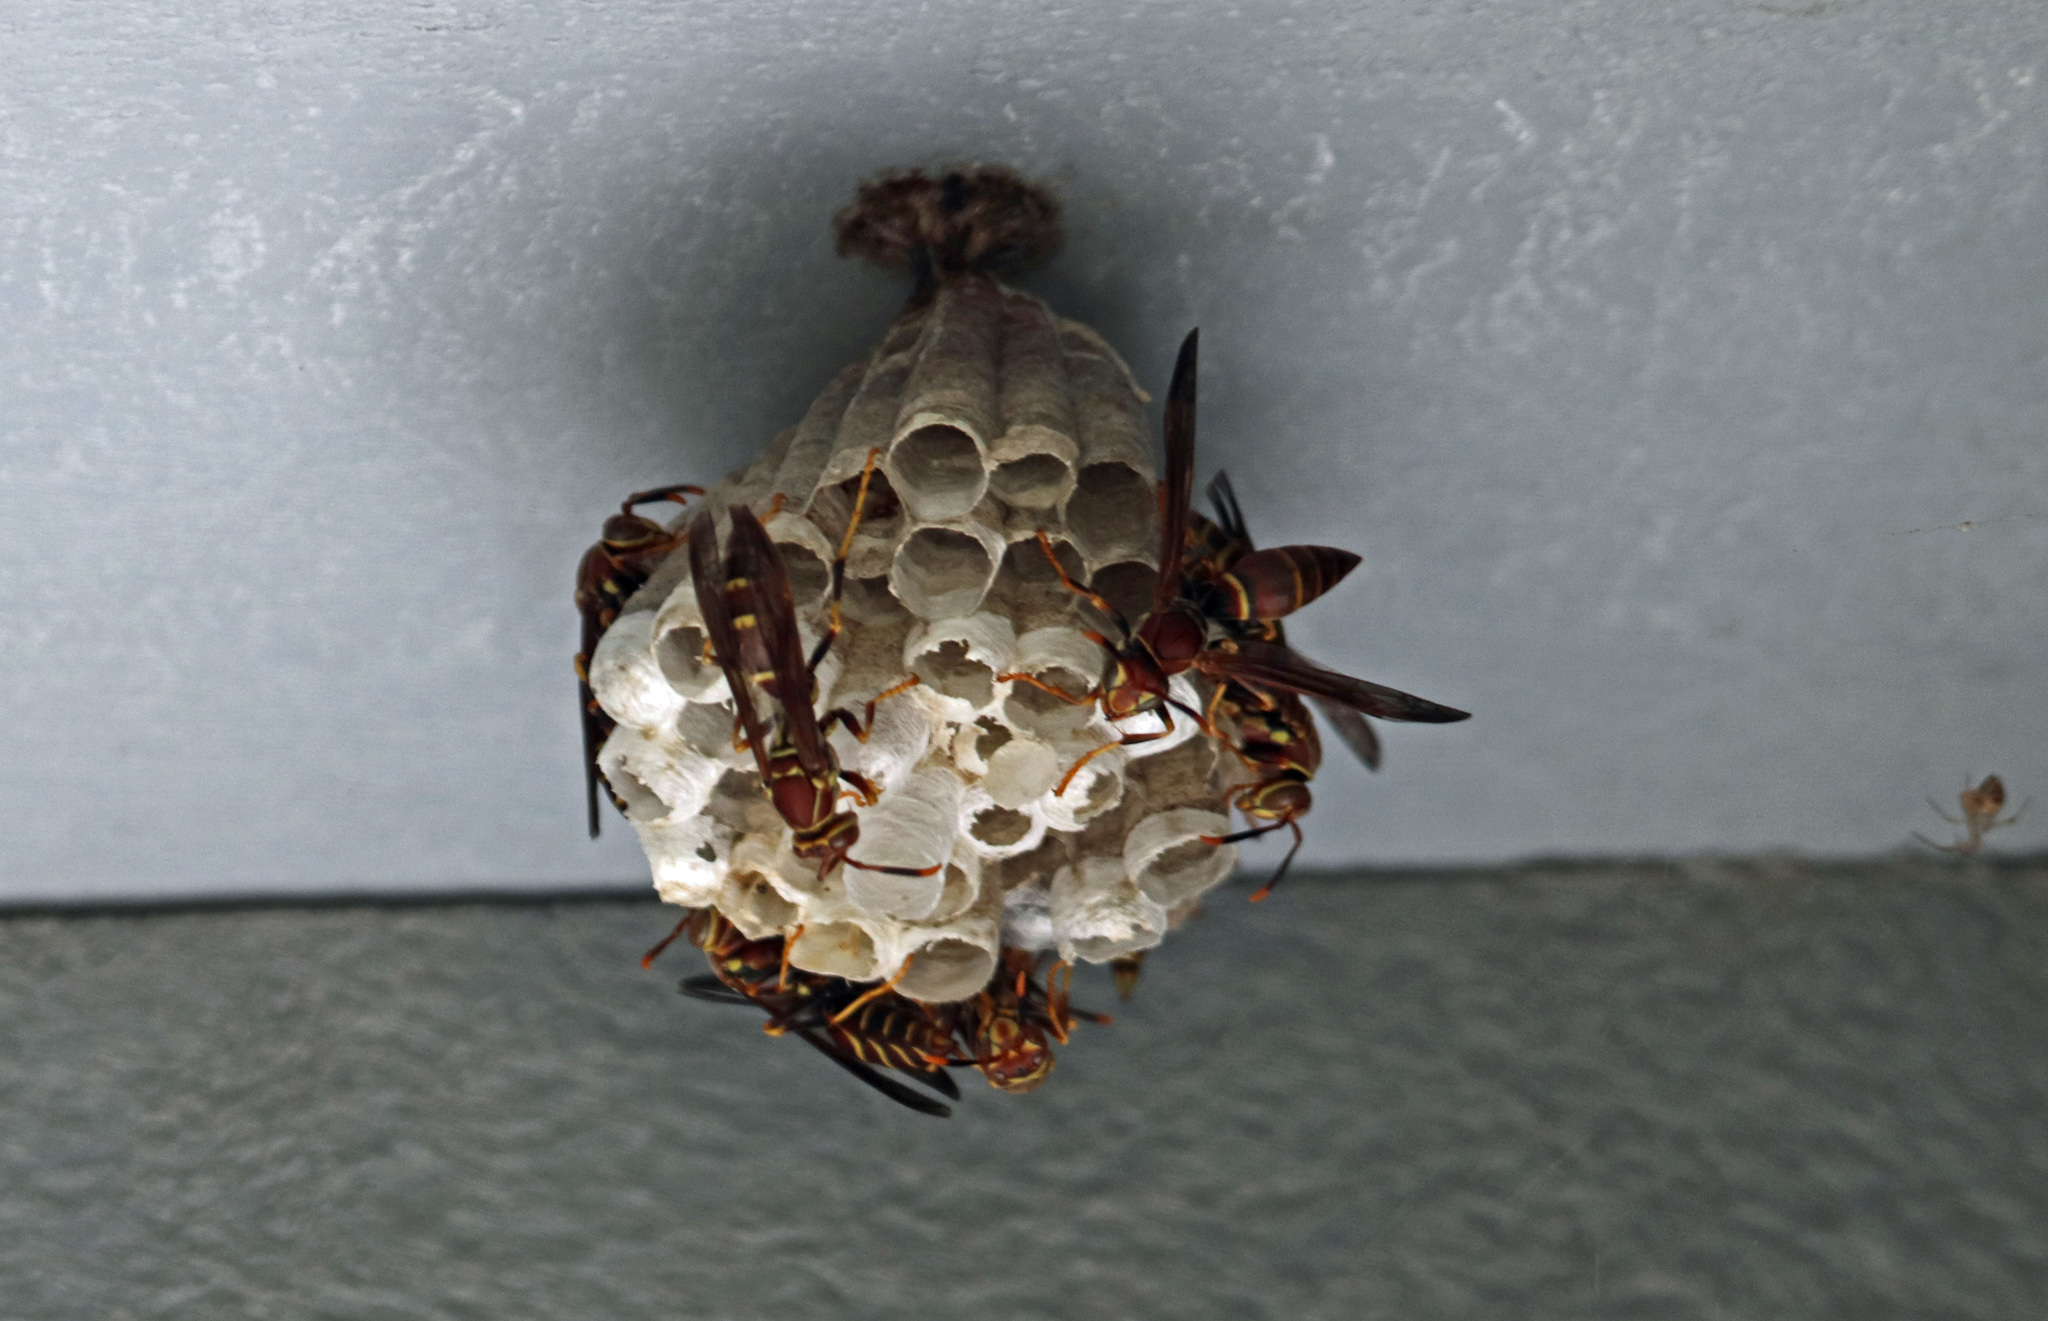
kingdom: Animalia
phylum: Arthropoda
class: Insecta
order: Hymenoptera
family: Eumenidae
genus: Polistes
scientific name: Polistes exclamans
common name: Paper wasp
